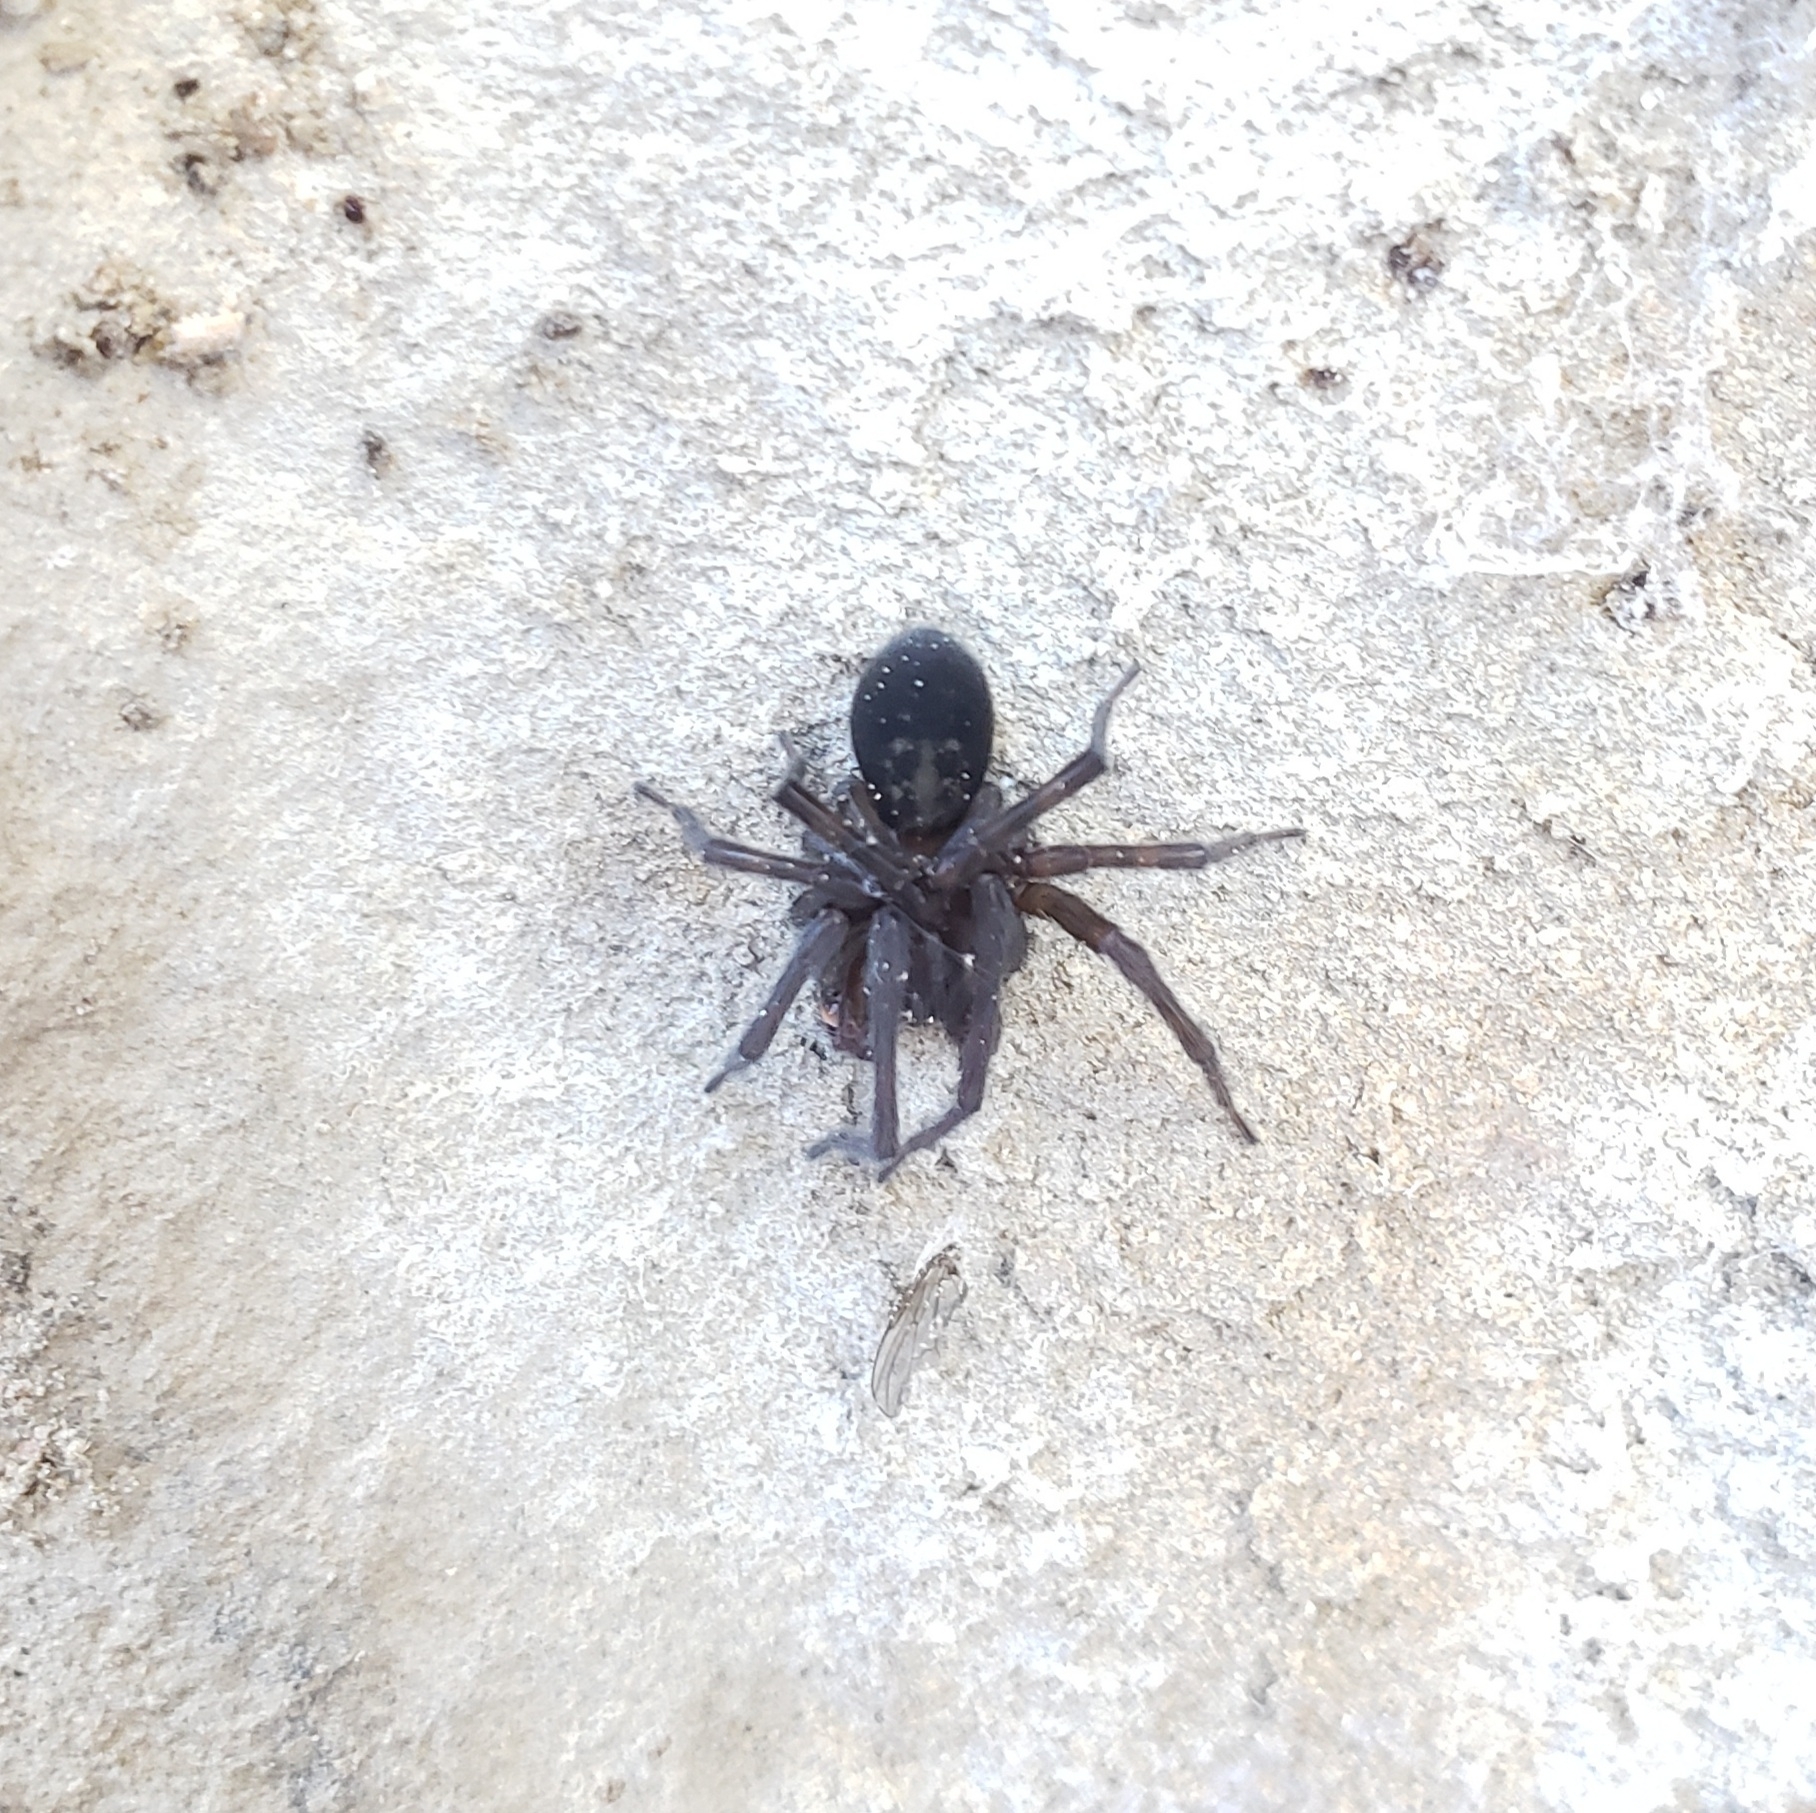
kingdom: Animalia
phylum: Arthropoda
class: Arachnida
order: Araneae
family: Amaurobiidae
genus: Amaurobius
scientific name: Amaurobius ferox
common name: Black laceweaver
